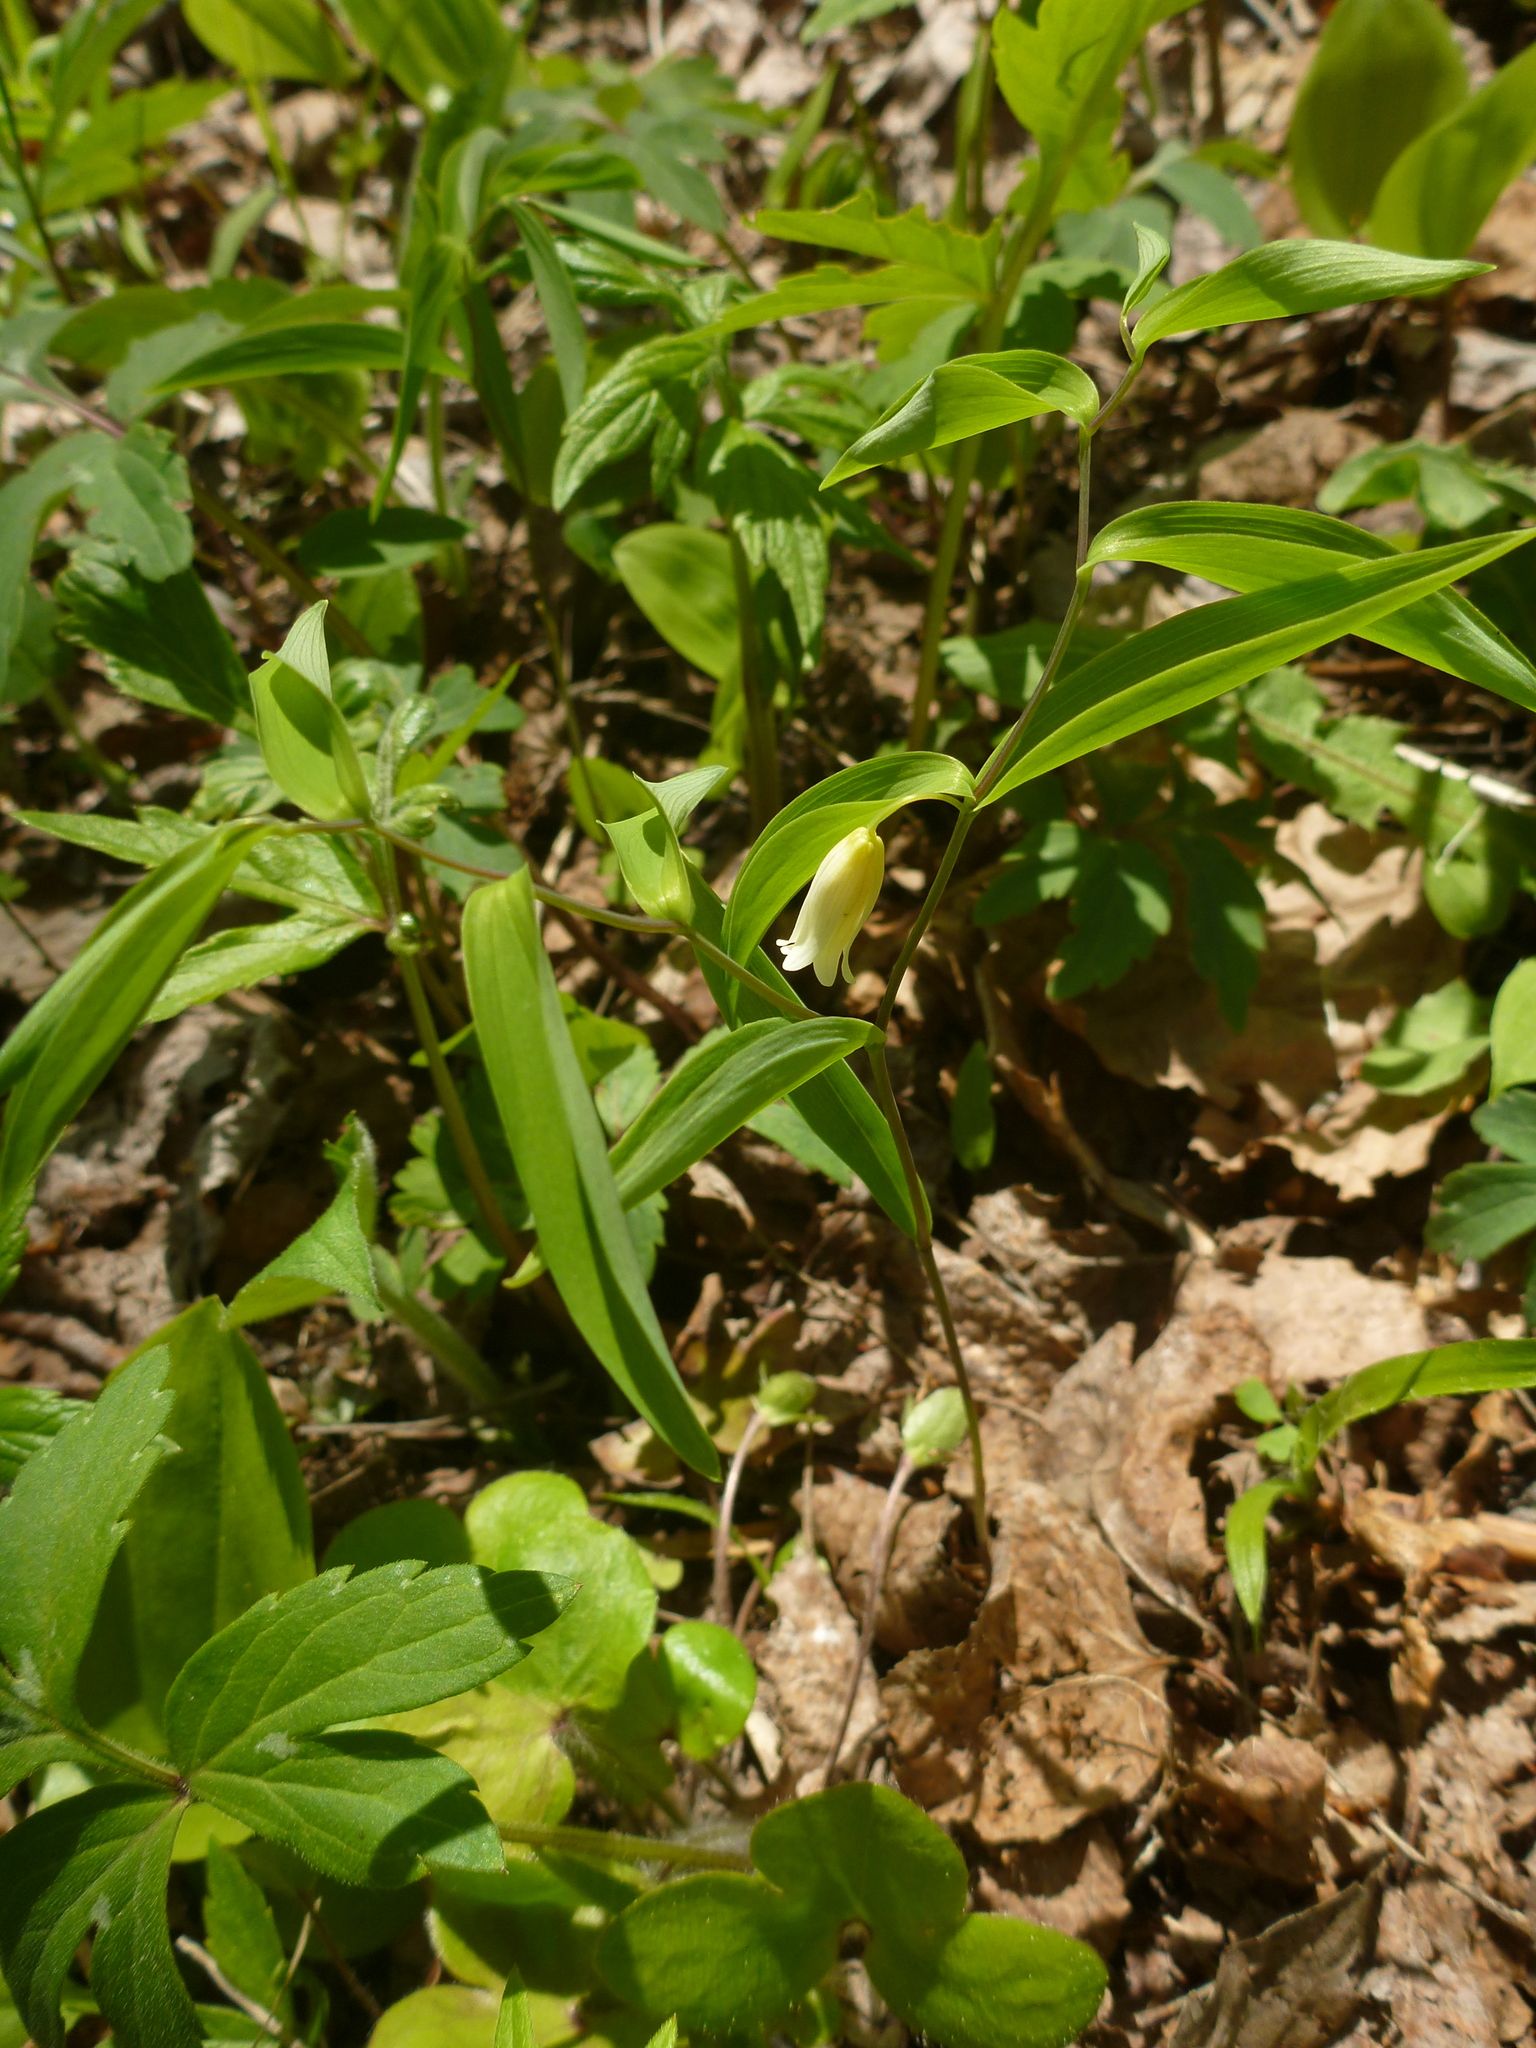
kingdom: Plantae
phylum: Tracheophyta
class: Liliopsida
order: Liliales
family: Colchicaceae
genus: Uvularia
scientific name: Uvularia sessilifolia
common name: Straw-lily
